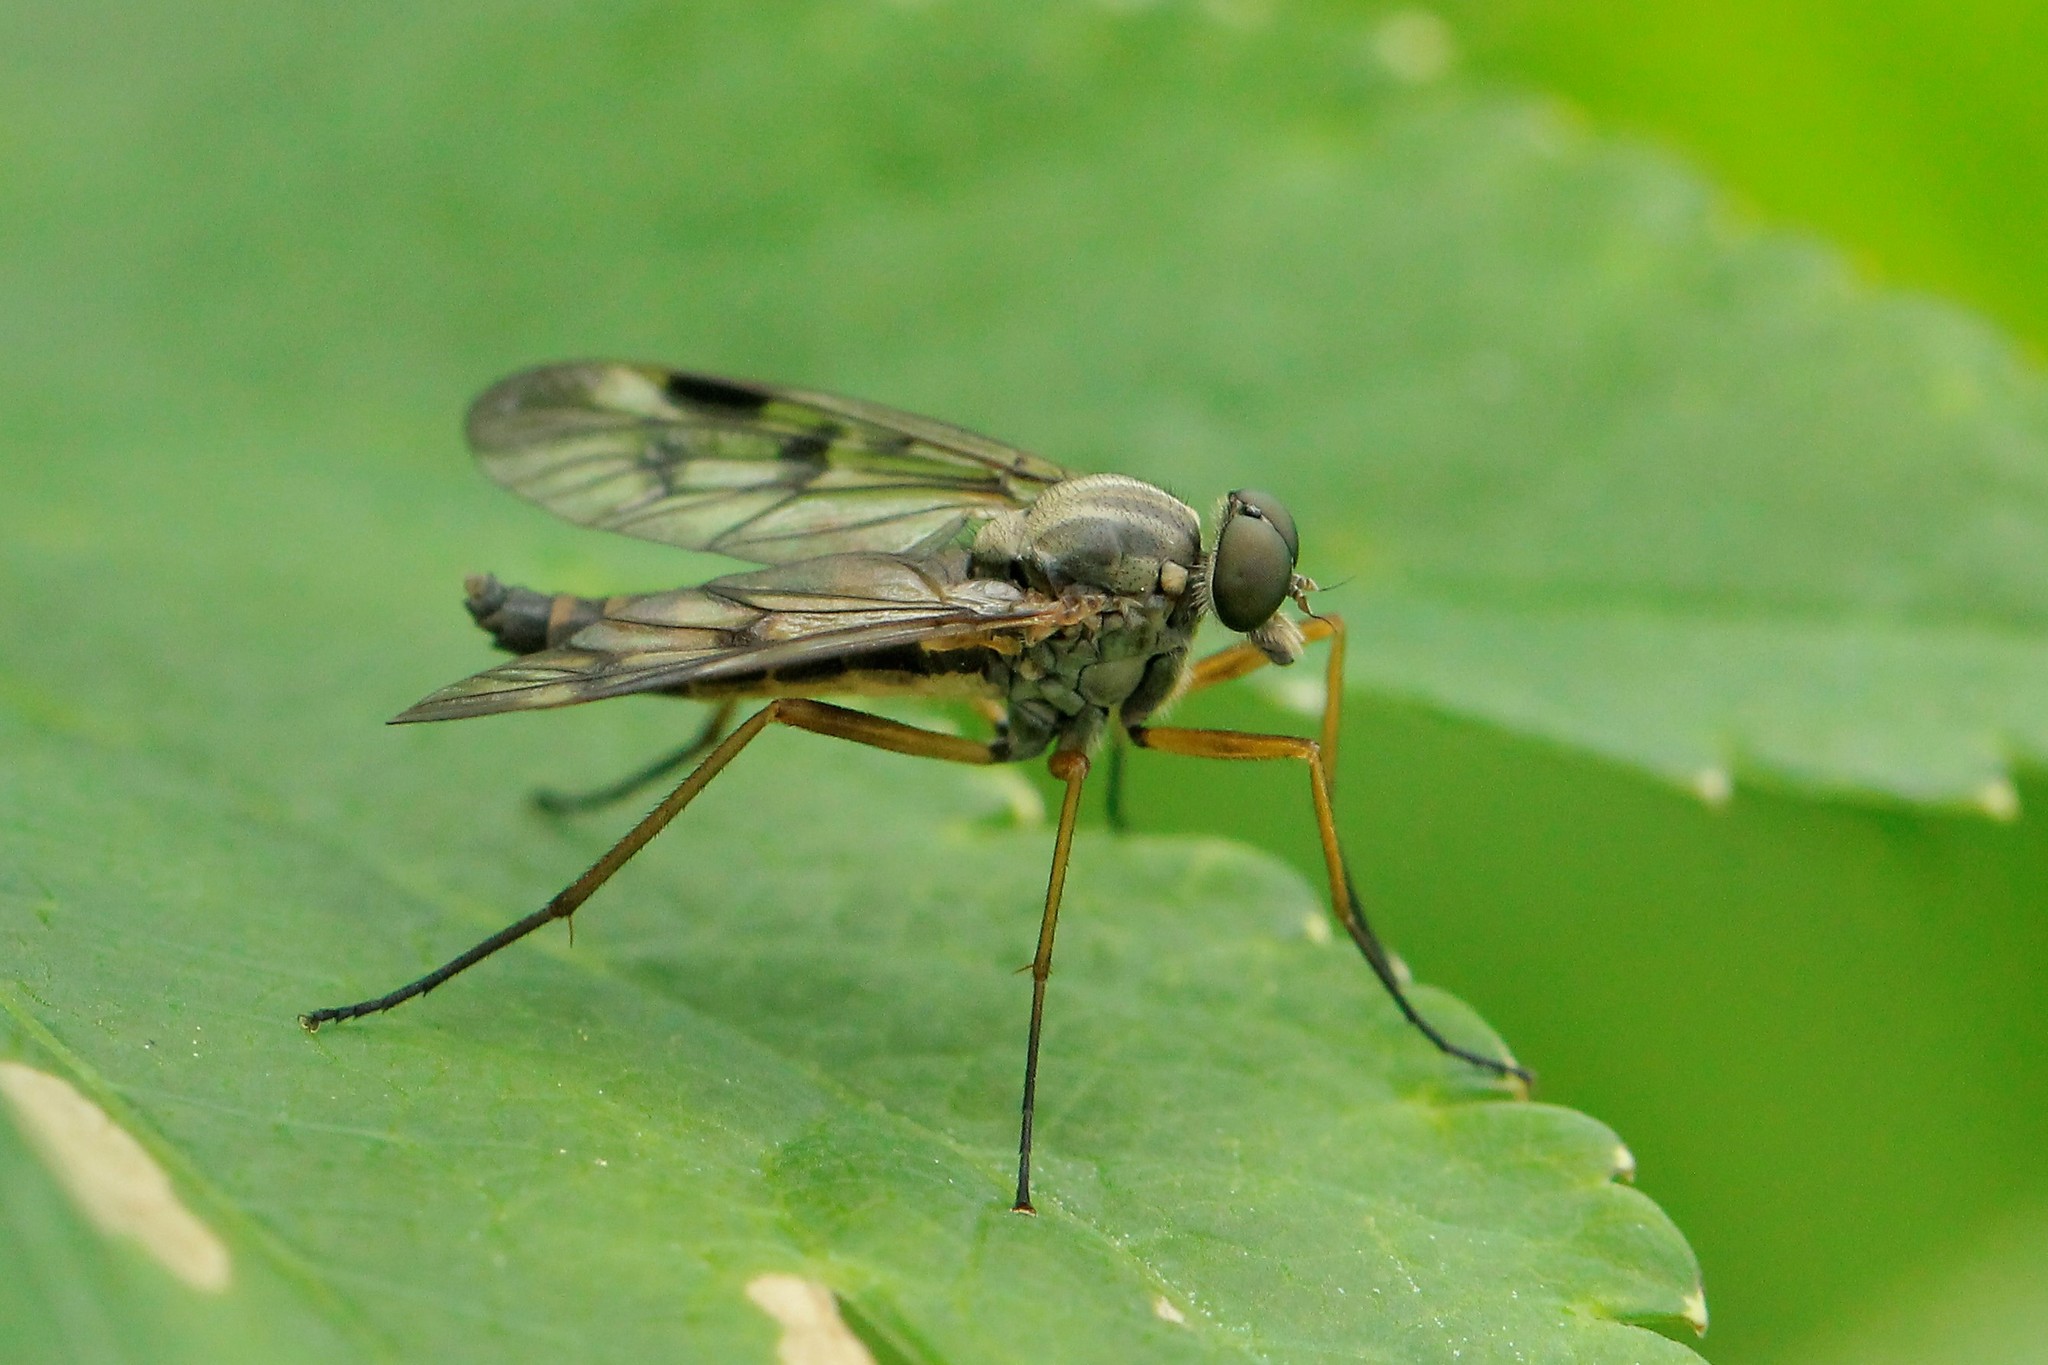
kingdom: Animalia
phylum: Arthropoda
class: Insecta
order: Diptera
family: Rhagionidae
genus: Rhagio
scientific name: Rhagio scolopacea
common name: Downlooker snipefly
